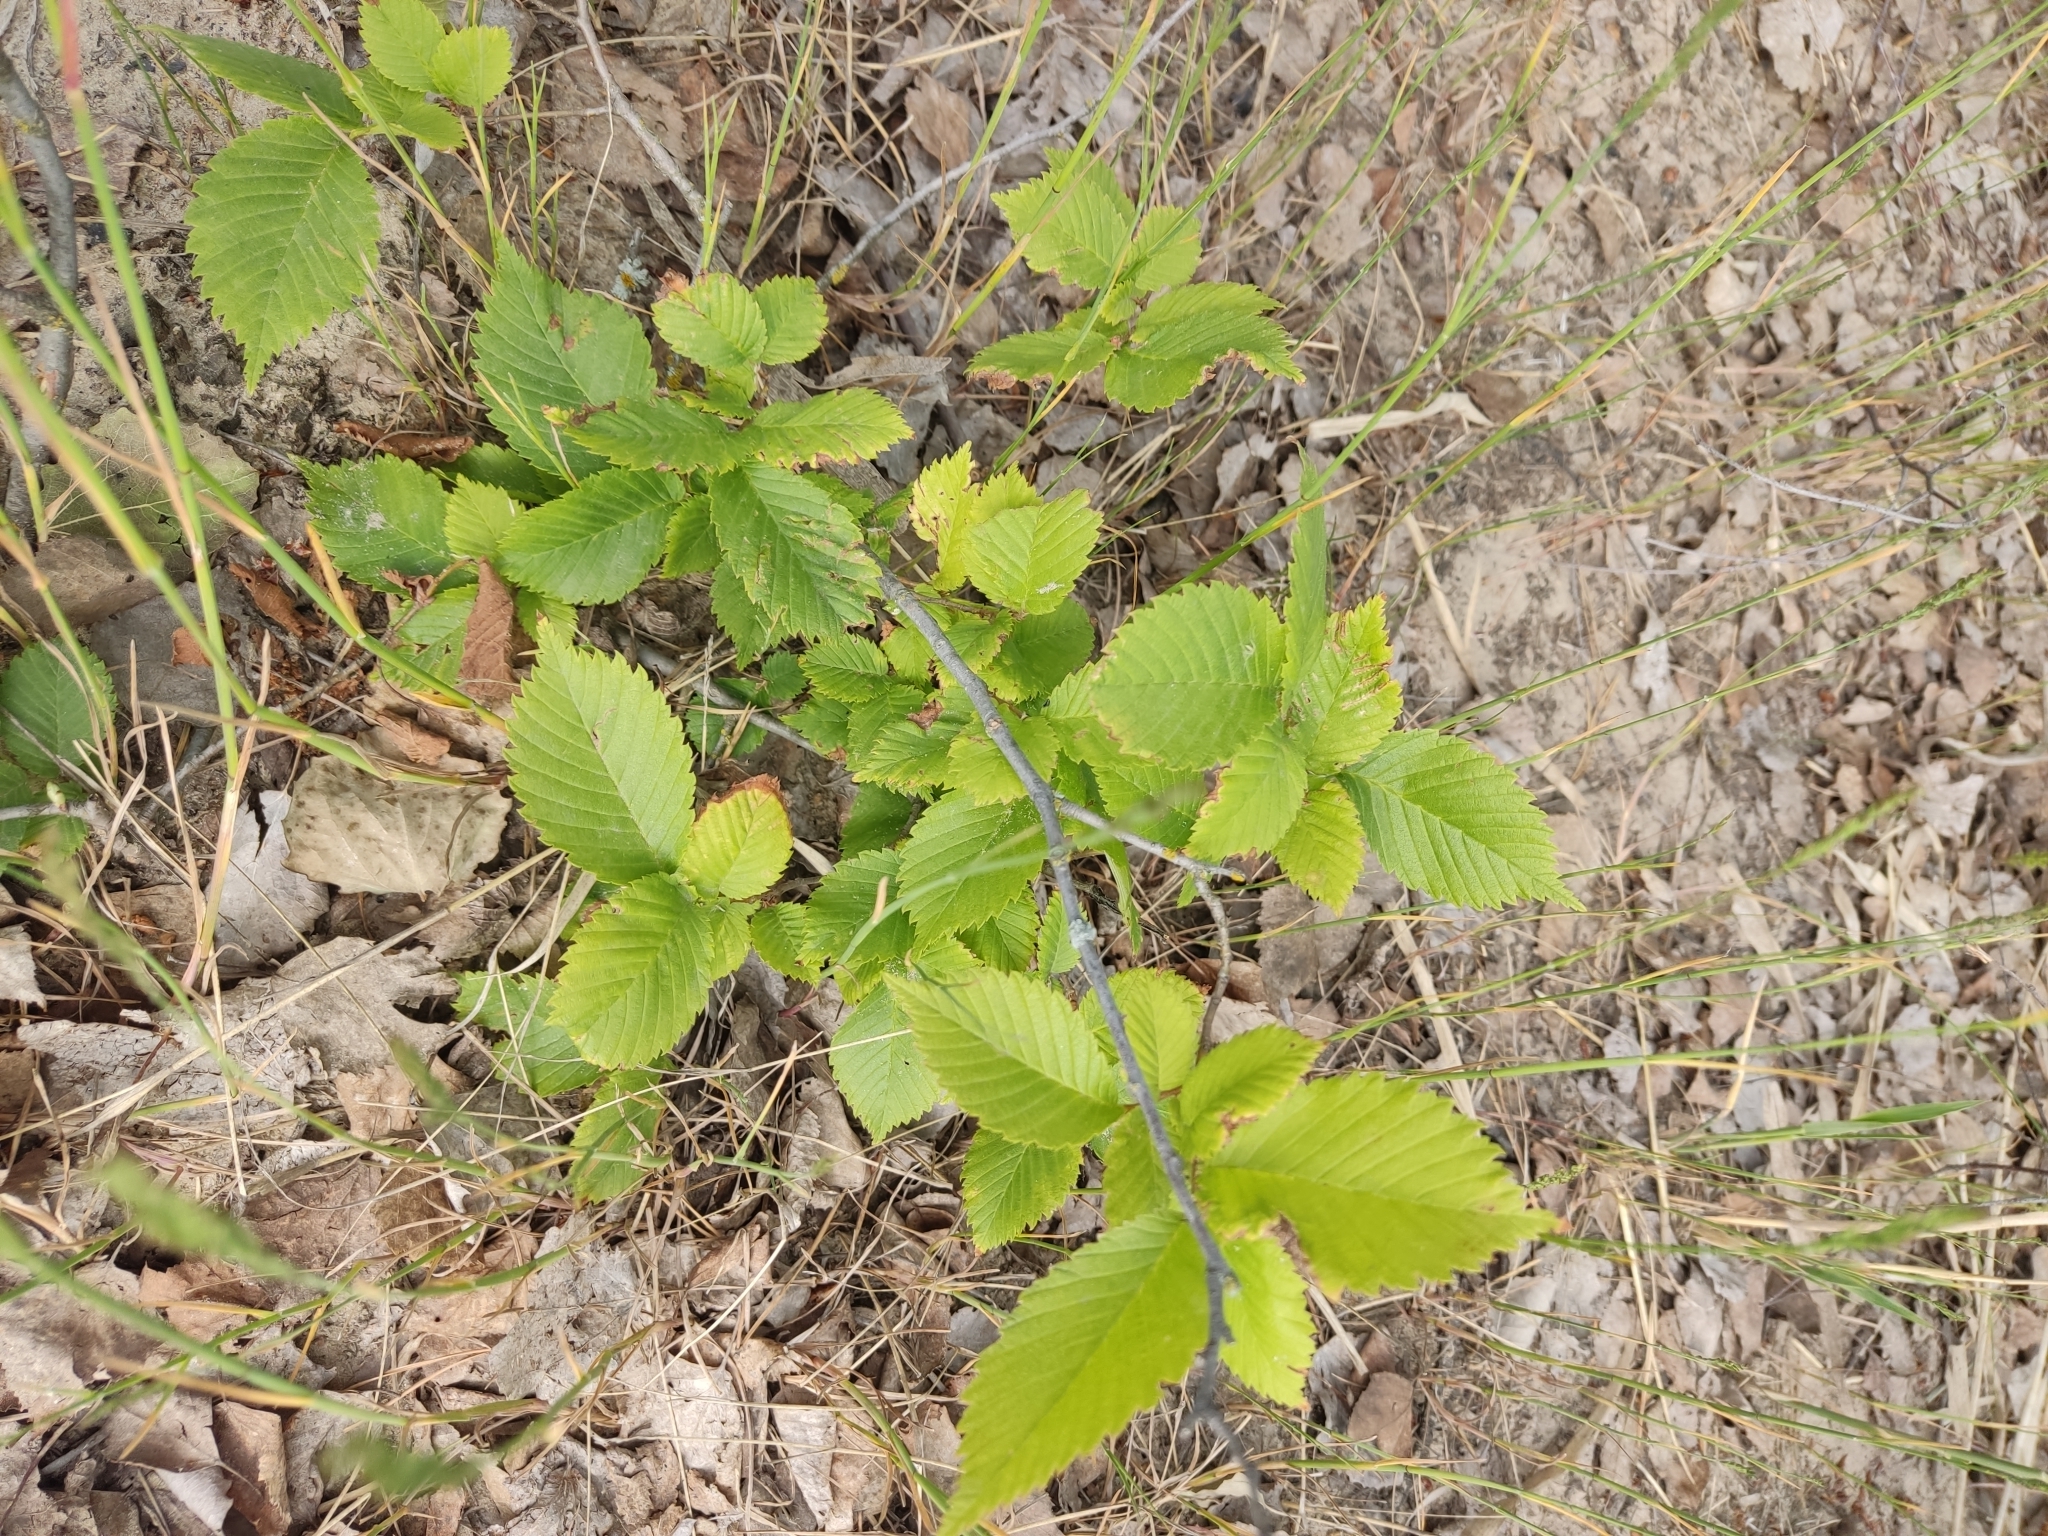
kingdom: Plantae
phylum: Tracheophyta
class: Magnoliopsida
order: Rosales
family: Ulmaceae
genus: Ulmus
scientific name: Ulmus laevis
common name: European white-elm
